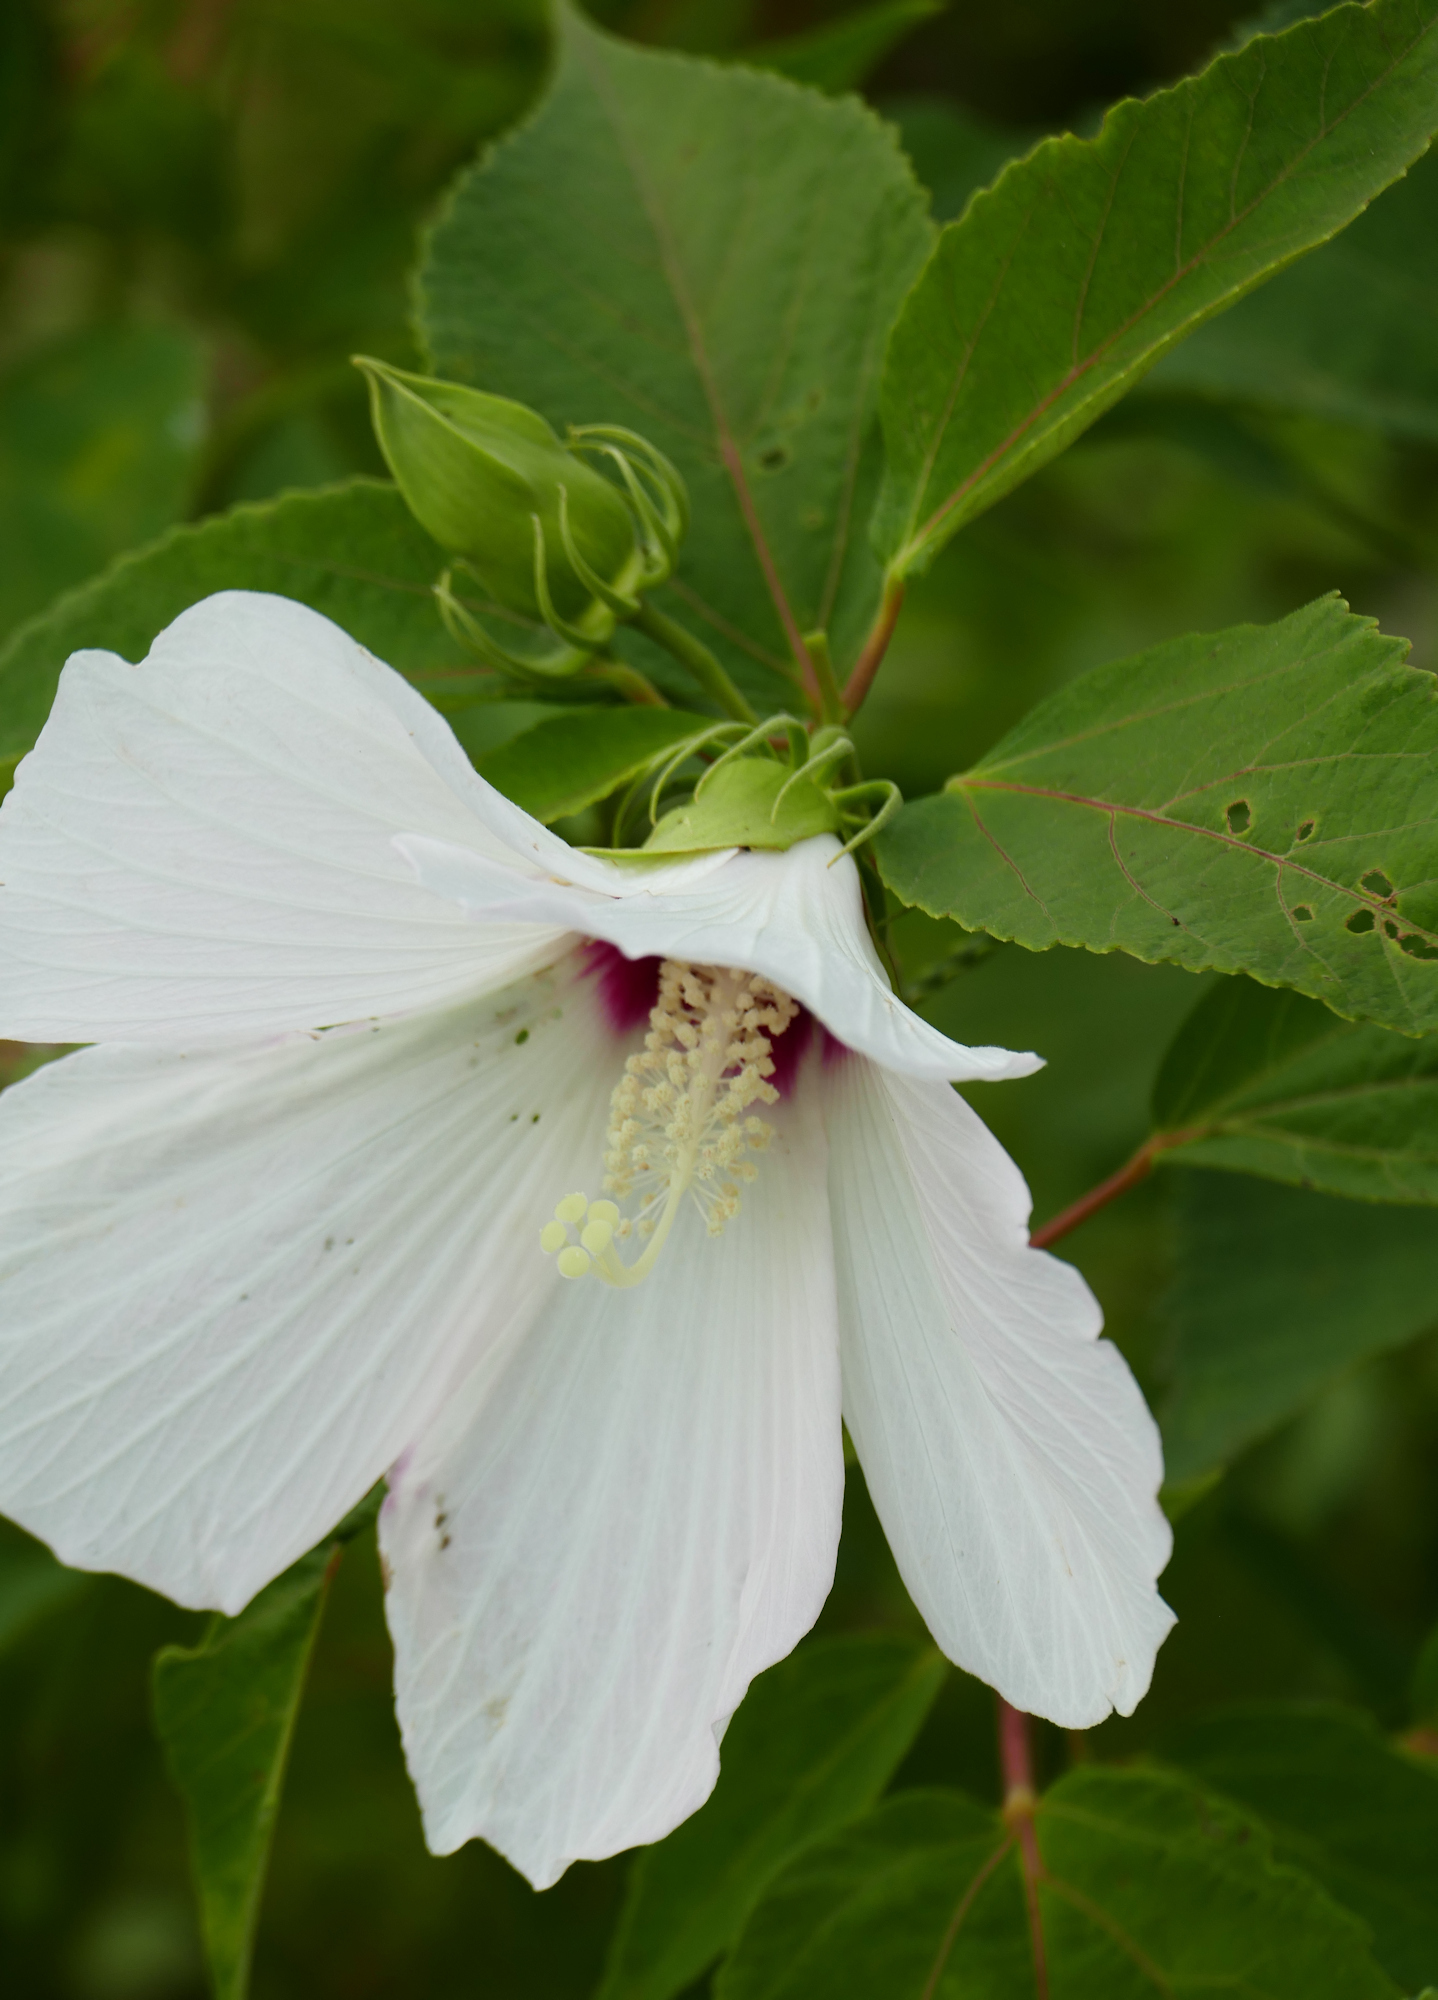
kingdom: Plantae
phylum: Tracheophyta
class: Magnoliopsida
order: Malvales
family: Malvaceae
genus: Hibiscus
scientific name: Hibiscus moscheutos
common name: Common rose-mallow
